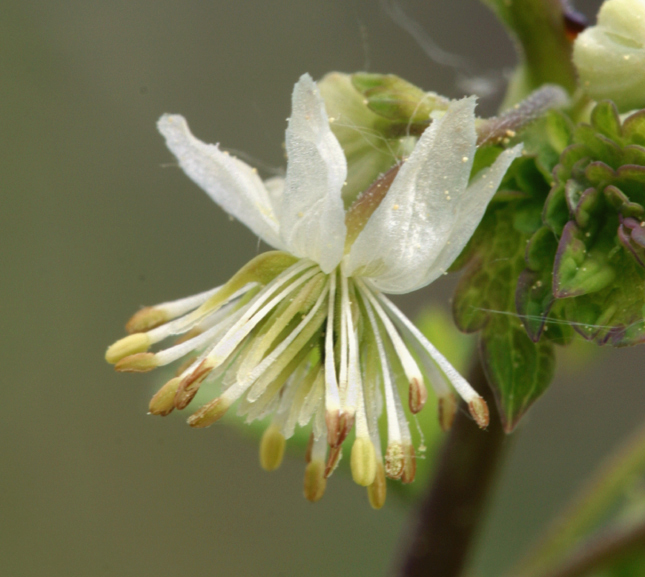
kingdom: Plantae
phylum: Tracheophyta
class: Magnoliopsida
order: Ranunculales
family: Ranunculaceae
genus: Thalictrum
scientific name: Thalictrum sparsiflorum
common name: Mountain meadow-rue
